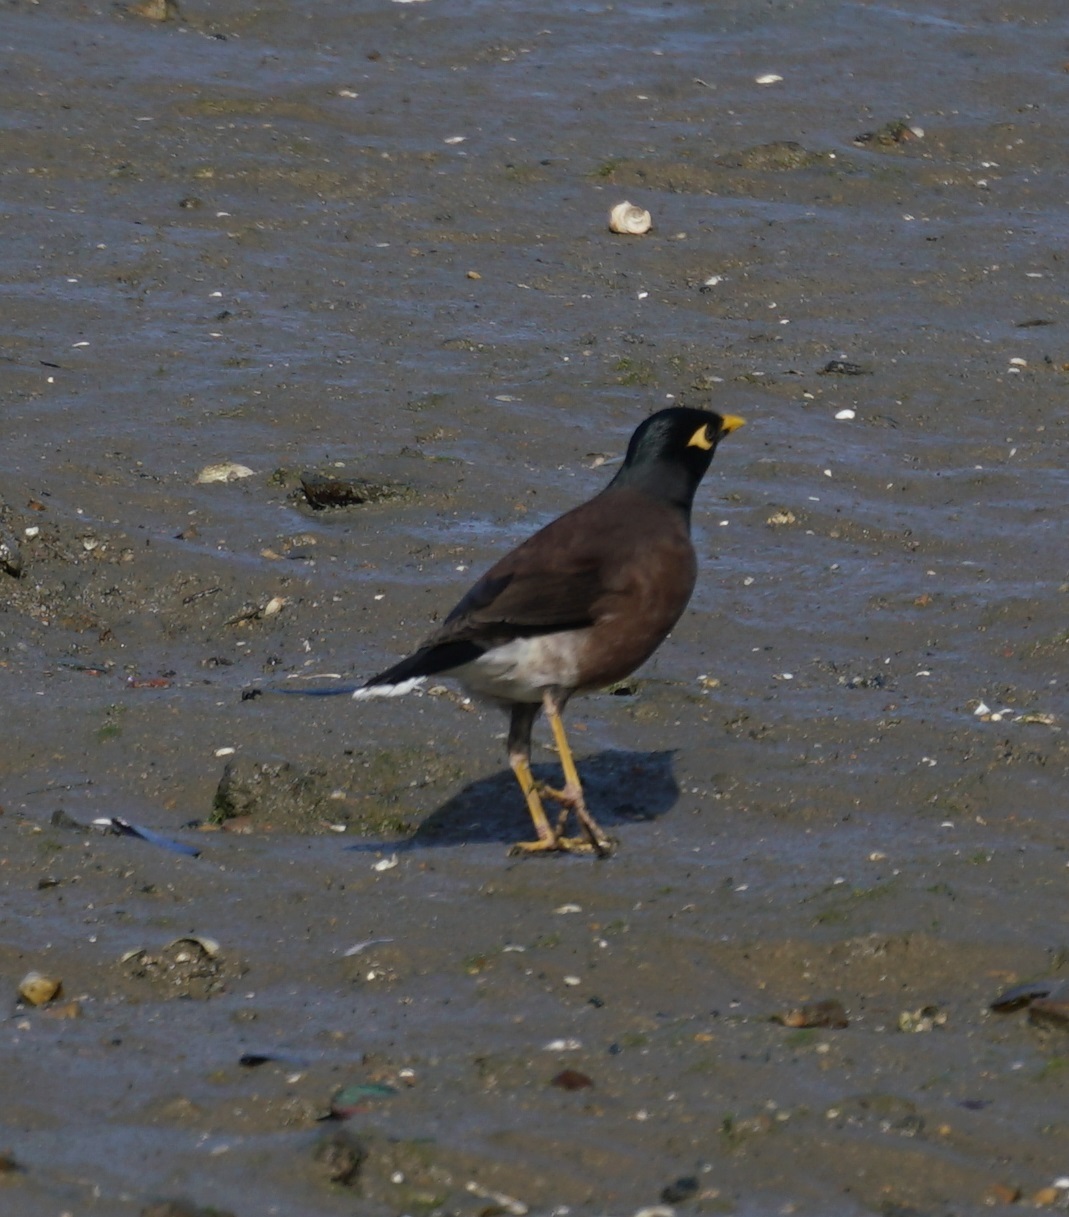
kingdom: Animalia
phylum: Chordata
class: Aves
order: Passeriformes
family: Sturnidae
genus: Acridotheres
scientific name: Acridotheres tristis
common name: Common myna
